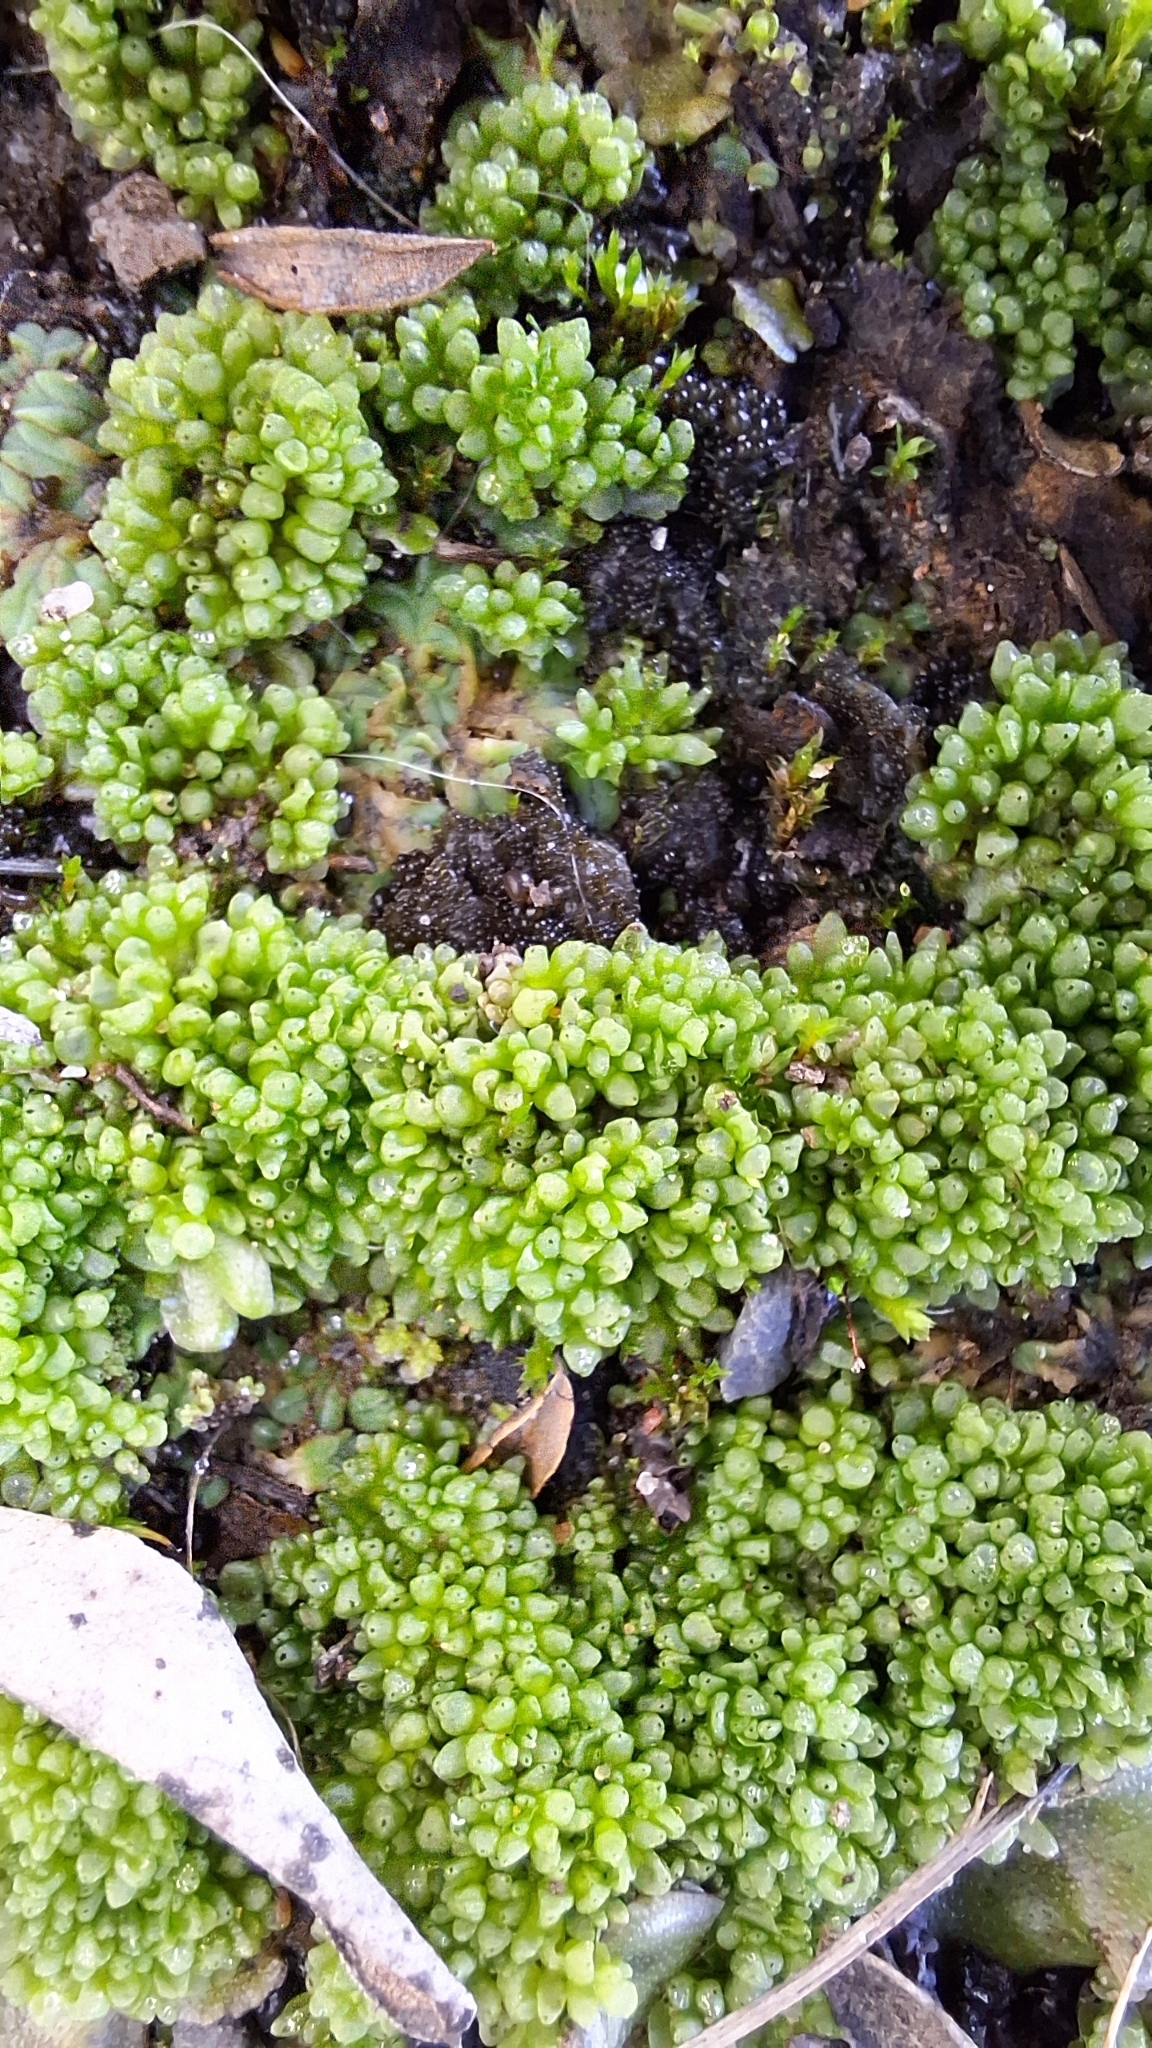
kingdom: Plantae
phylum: Marchantiophyta
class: Marchantiopsida
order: Sphaerocarpales
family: Sphaerocarpaceae
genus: Sphaerocarpos
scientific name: Sphaerocarpos texanus
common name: Texas balloonwort
